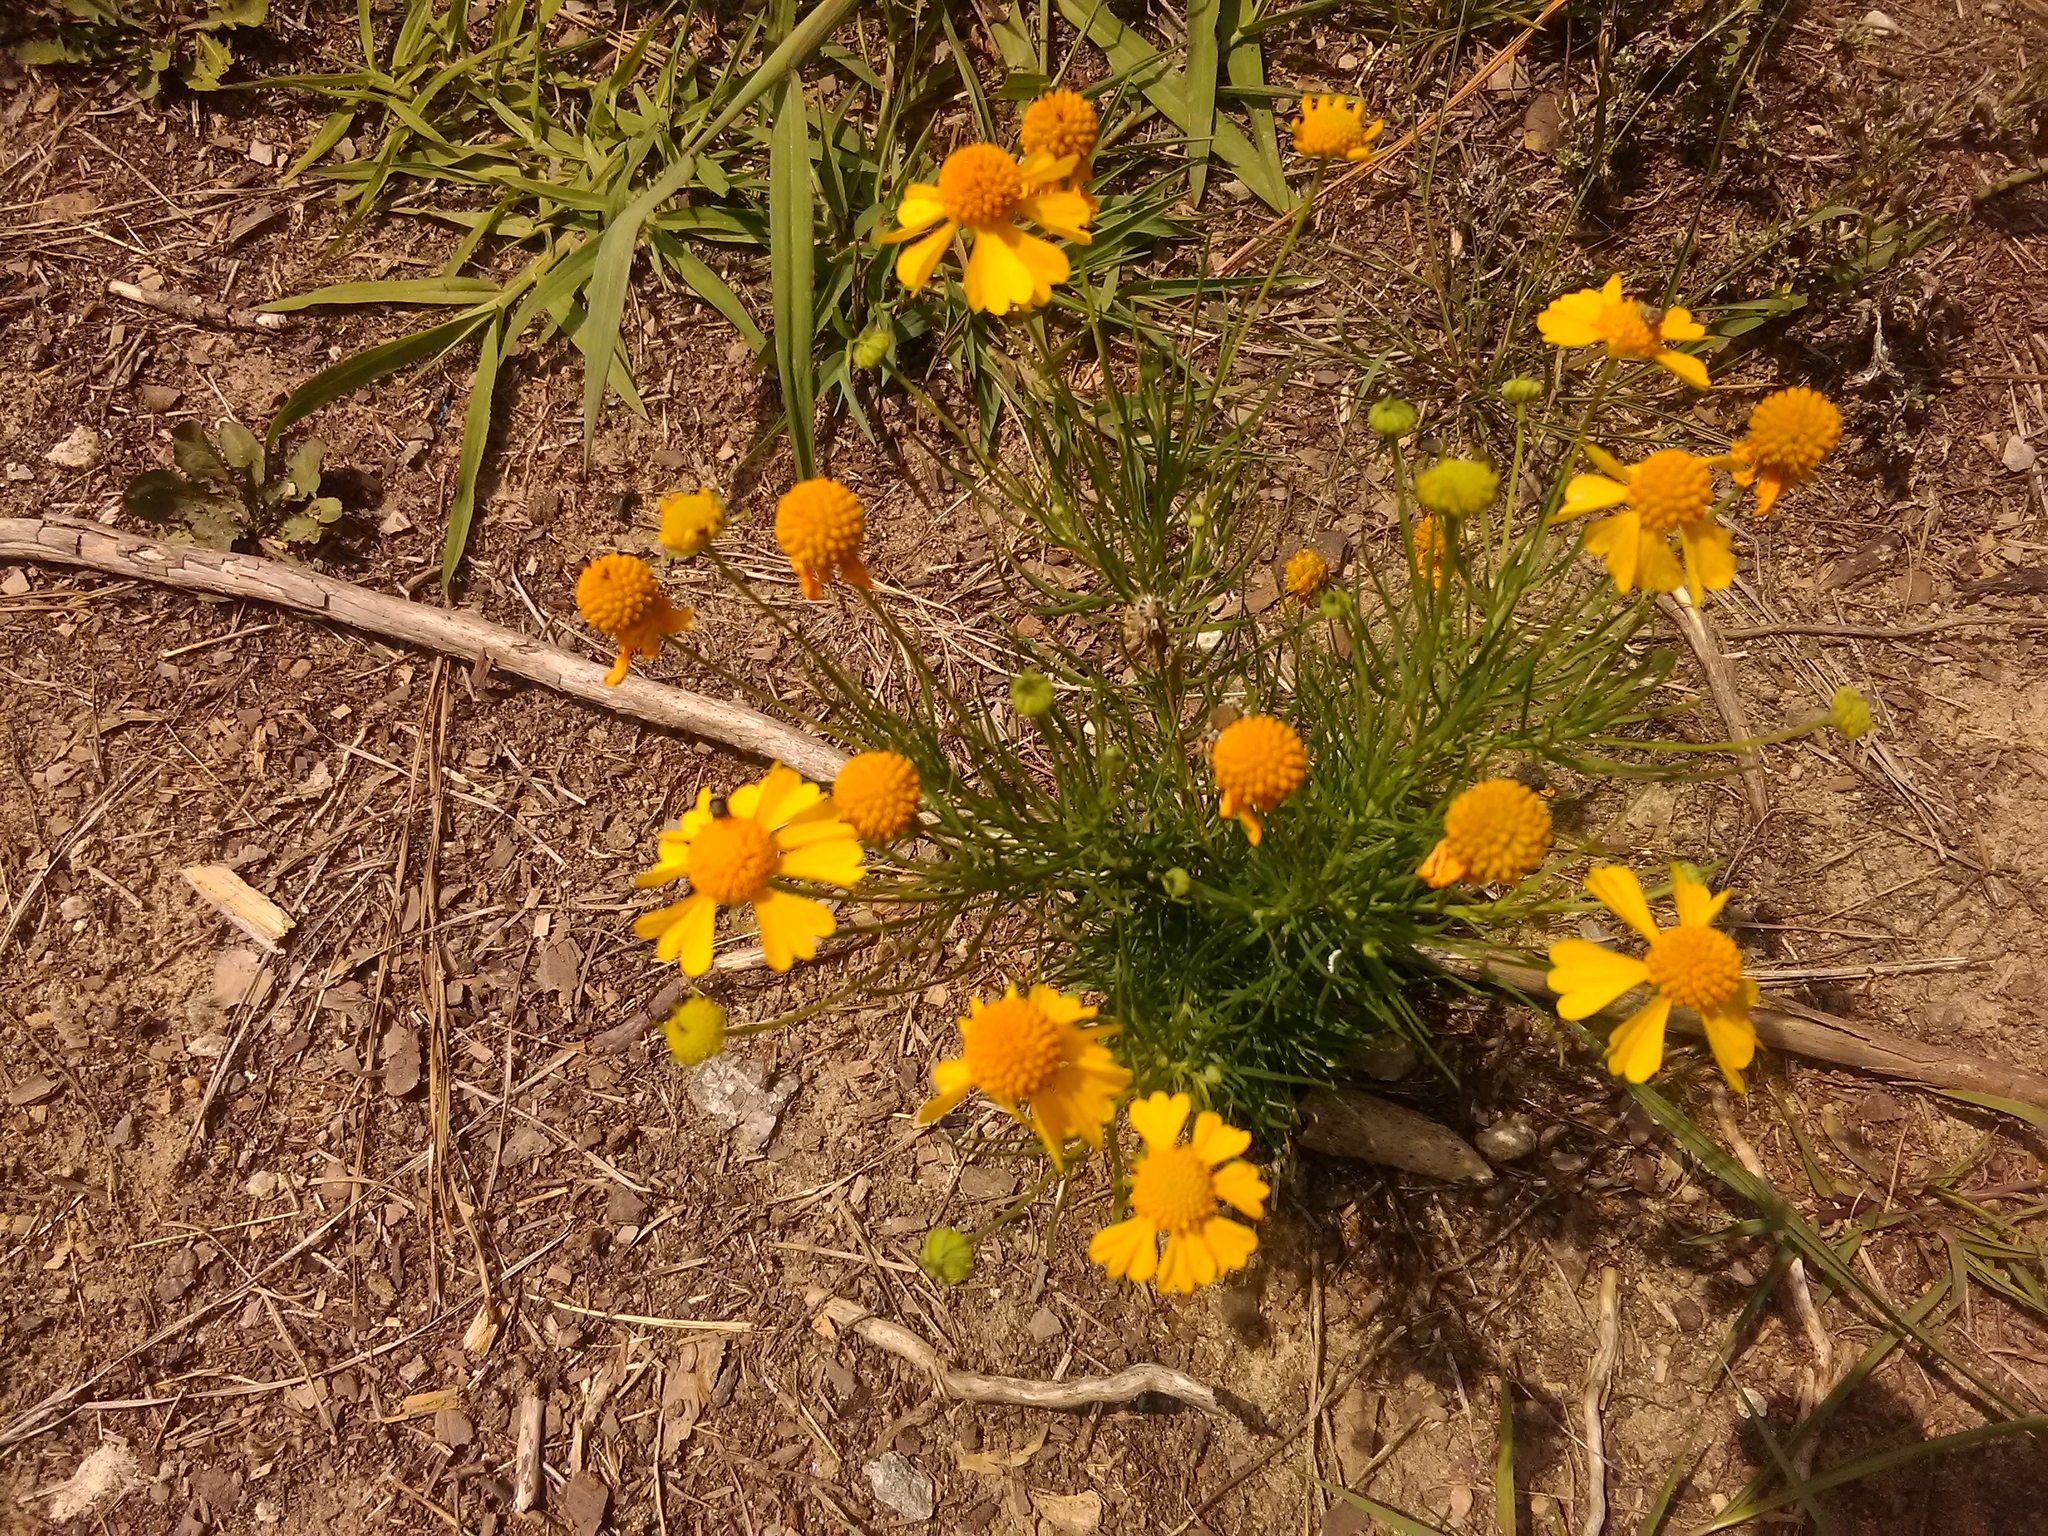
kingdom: Plantae
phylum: Tracheophyta
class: Magnoliopsida
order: Asterales
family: Asteraceae
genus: Helenium
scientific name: Helenium amarum
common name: Bitter sneezeweed
